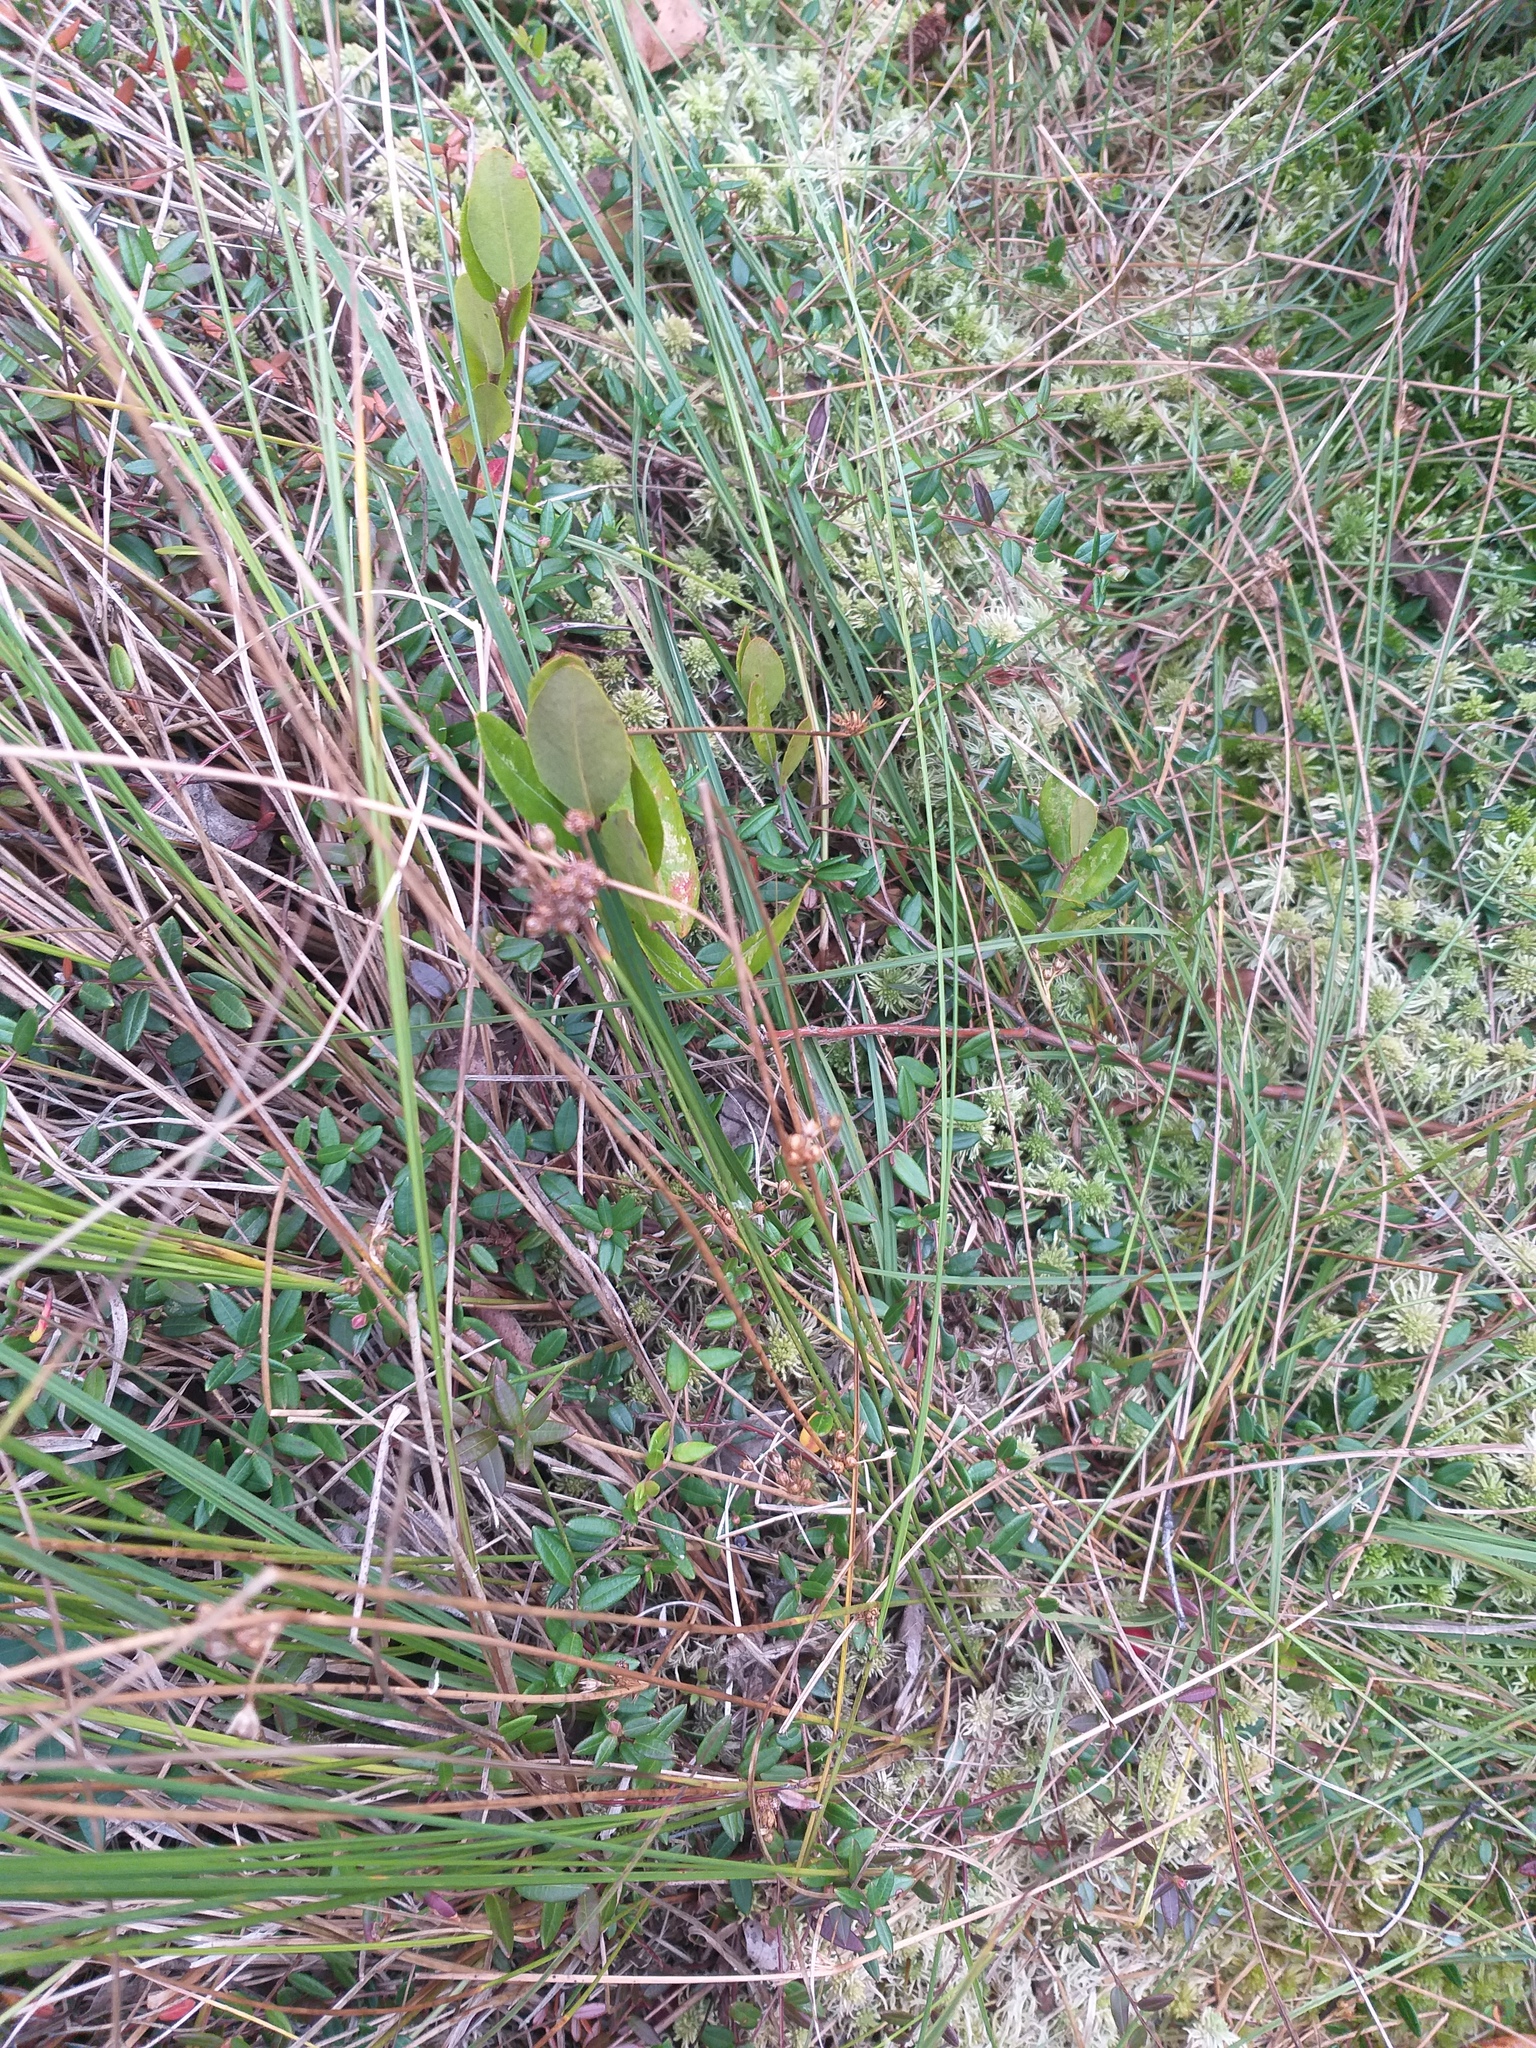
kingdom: Plantae
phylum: Tracheophyta
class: Liliopsida
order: Poales
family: Juncaceae
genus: Juncus
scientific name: Juncus filiformis
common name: Thread rush
